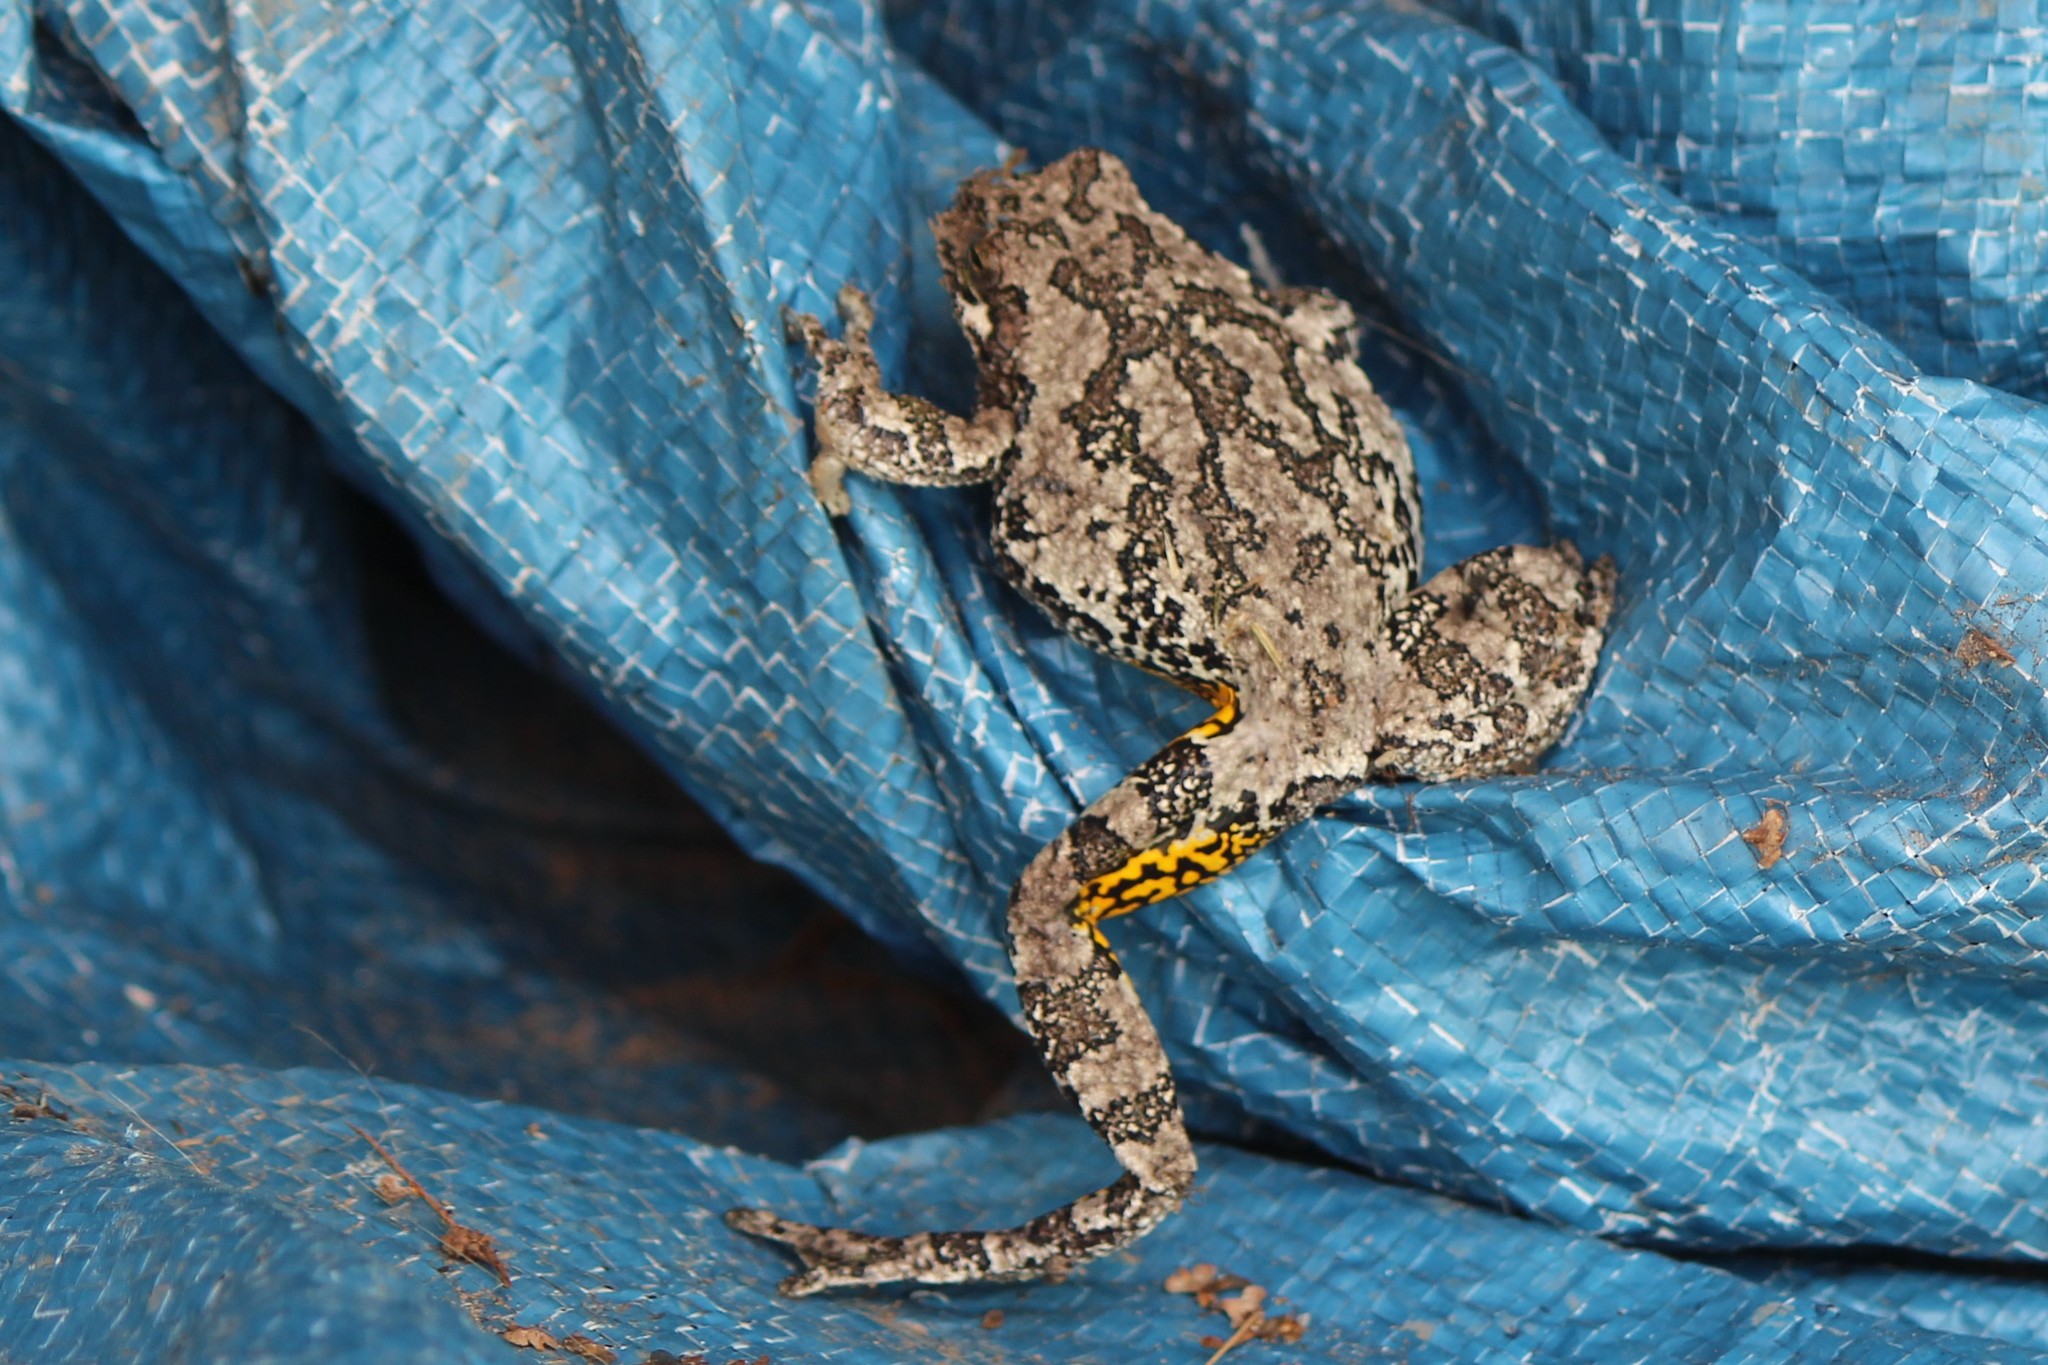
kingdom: Animalia
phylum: Chordata
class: Amphibia
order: Anura
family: Hylidae
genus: Dryophytes
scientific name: Dryophytes versicolor
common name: Gray treefrog
